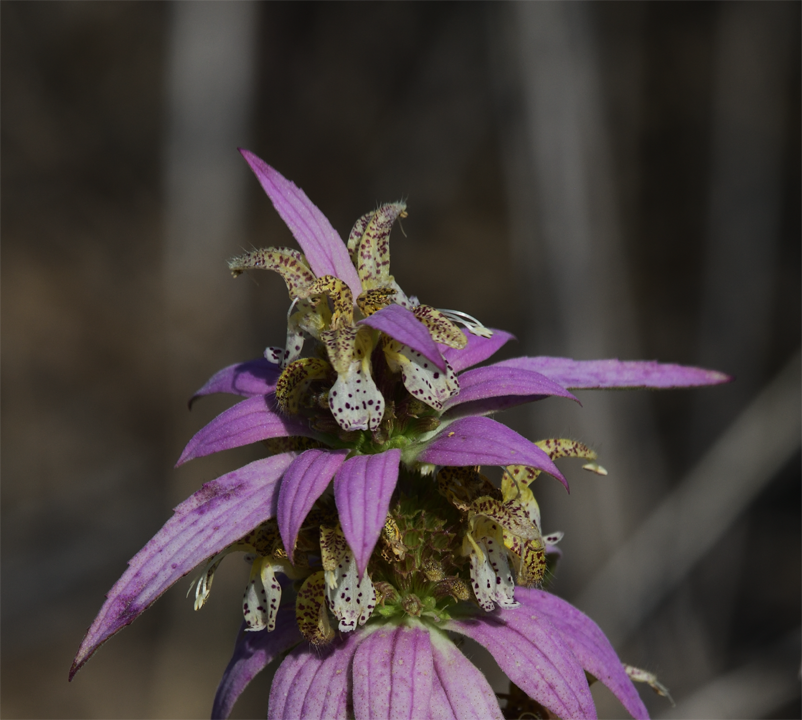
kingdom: Plantae
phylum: Tracheophyta
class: Magnoliopsida
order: Lamiales
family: Lamiaceae
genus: Monarda
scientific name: Monarda punctata
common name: Dotted monarda
